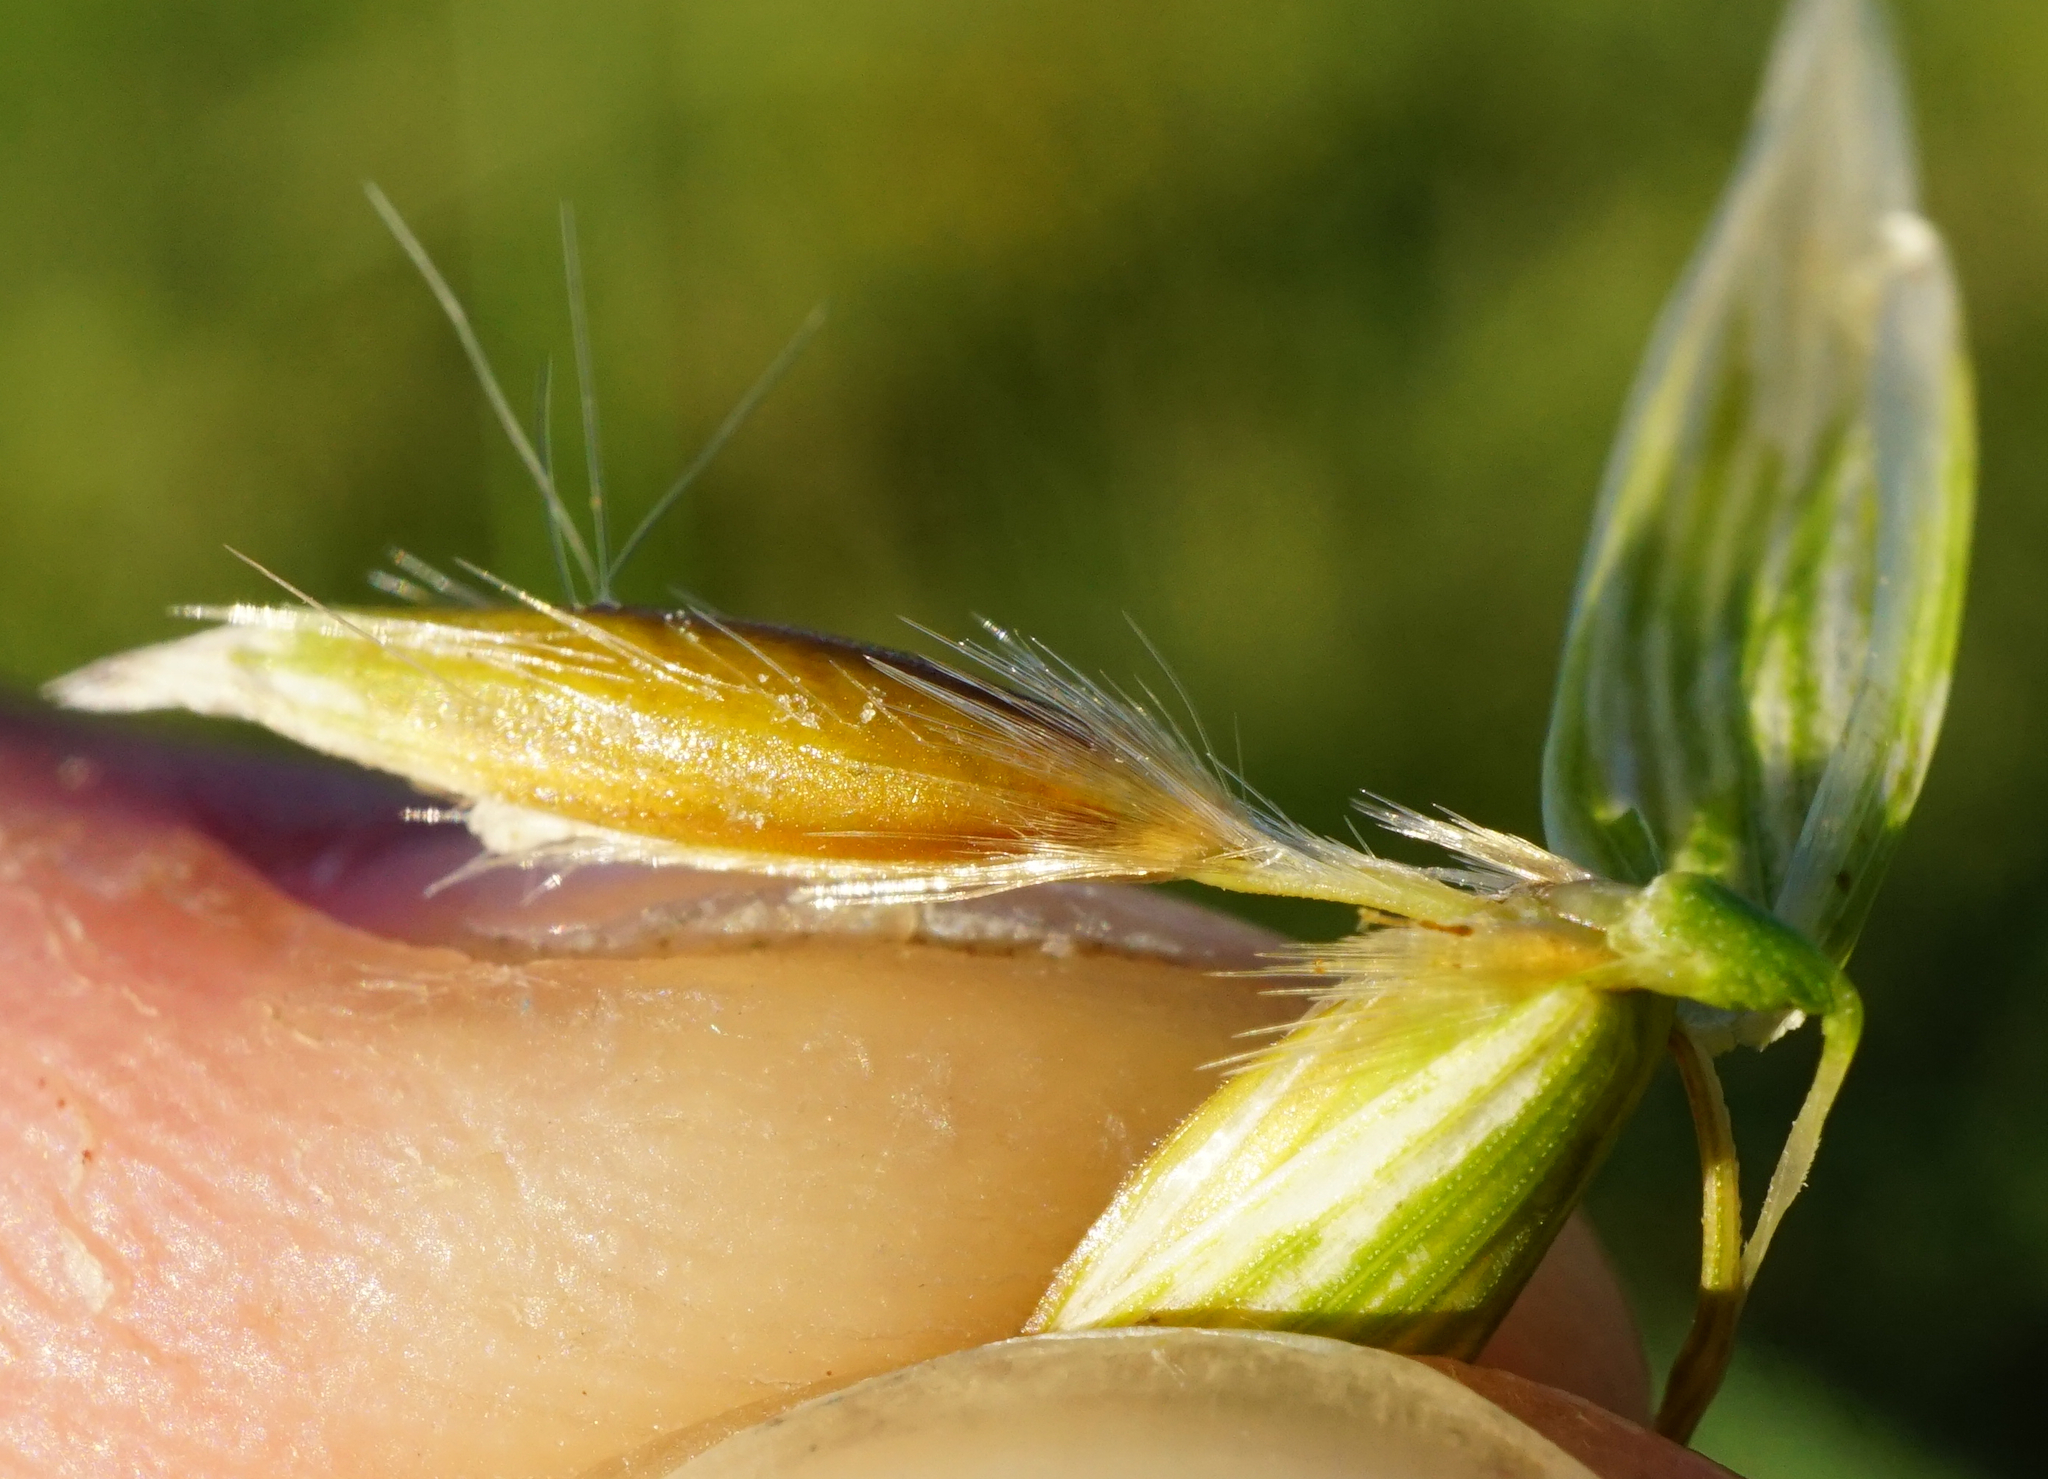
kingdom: Plantae
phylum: Tracheophyta
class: Liliopsida
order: Poales
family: Poaceae
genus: Avena
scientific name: Avena fatua
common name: Wild oat
